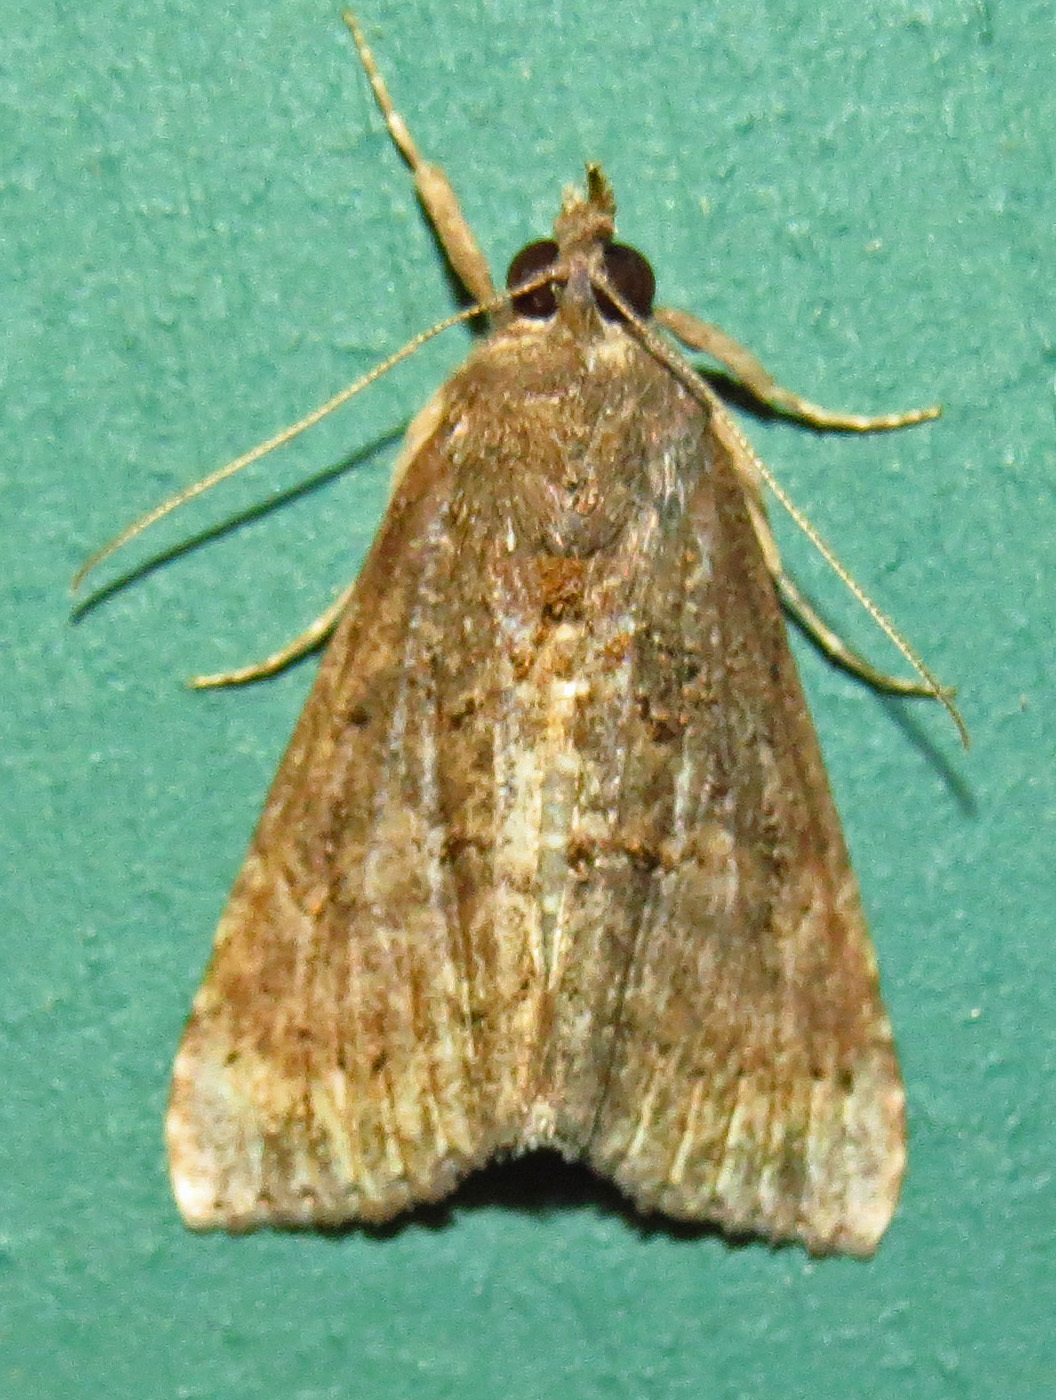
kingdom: Animalia
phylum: Arthropoda
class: Insecta
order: Lepidoptera
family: Erebidae
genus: Hypena
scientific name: Hypena scabra
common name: Green cloverworm
